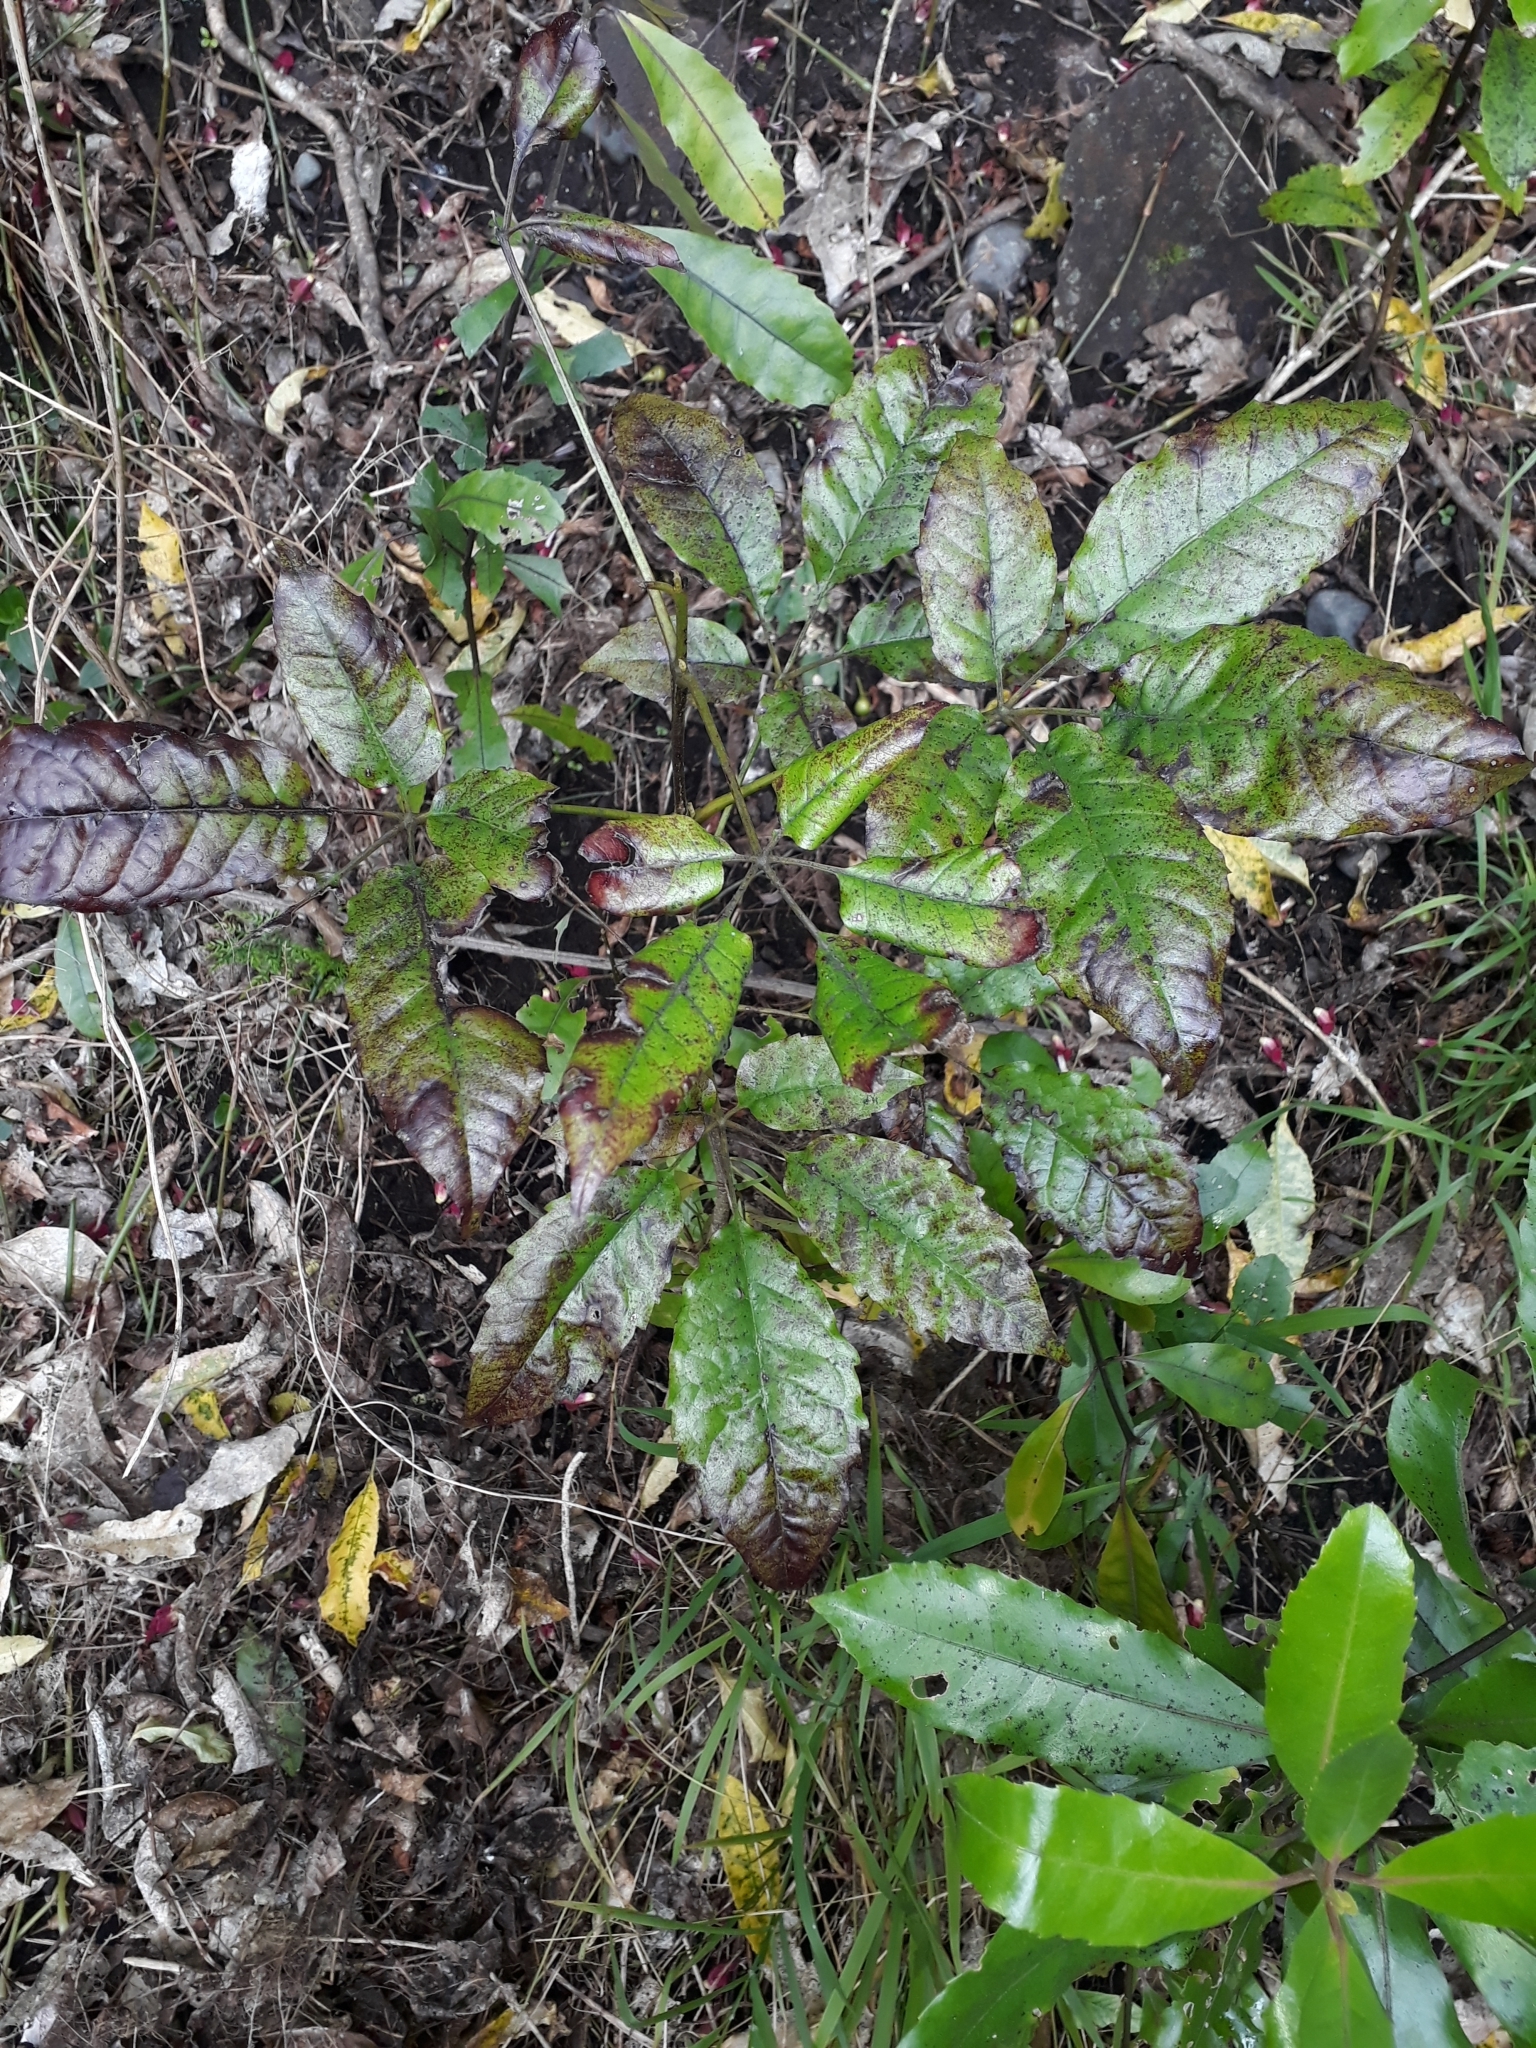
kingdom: Plantae
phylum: Tracheophyta
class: Magnoliopsida
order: Lamiales
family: Lamiaceae
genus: Vitex
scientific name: Vitex lucens
